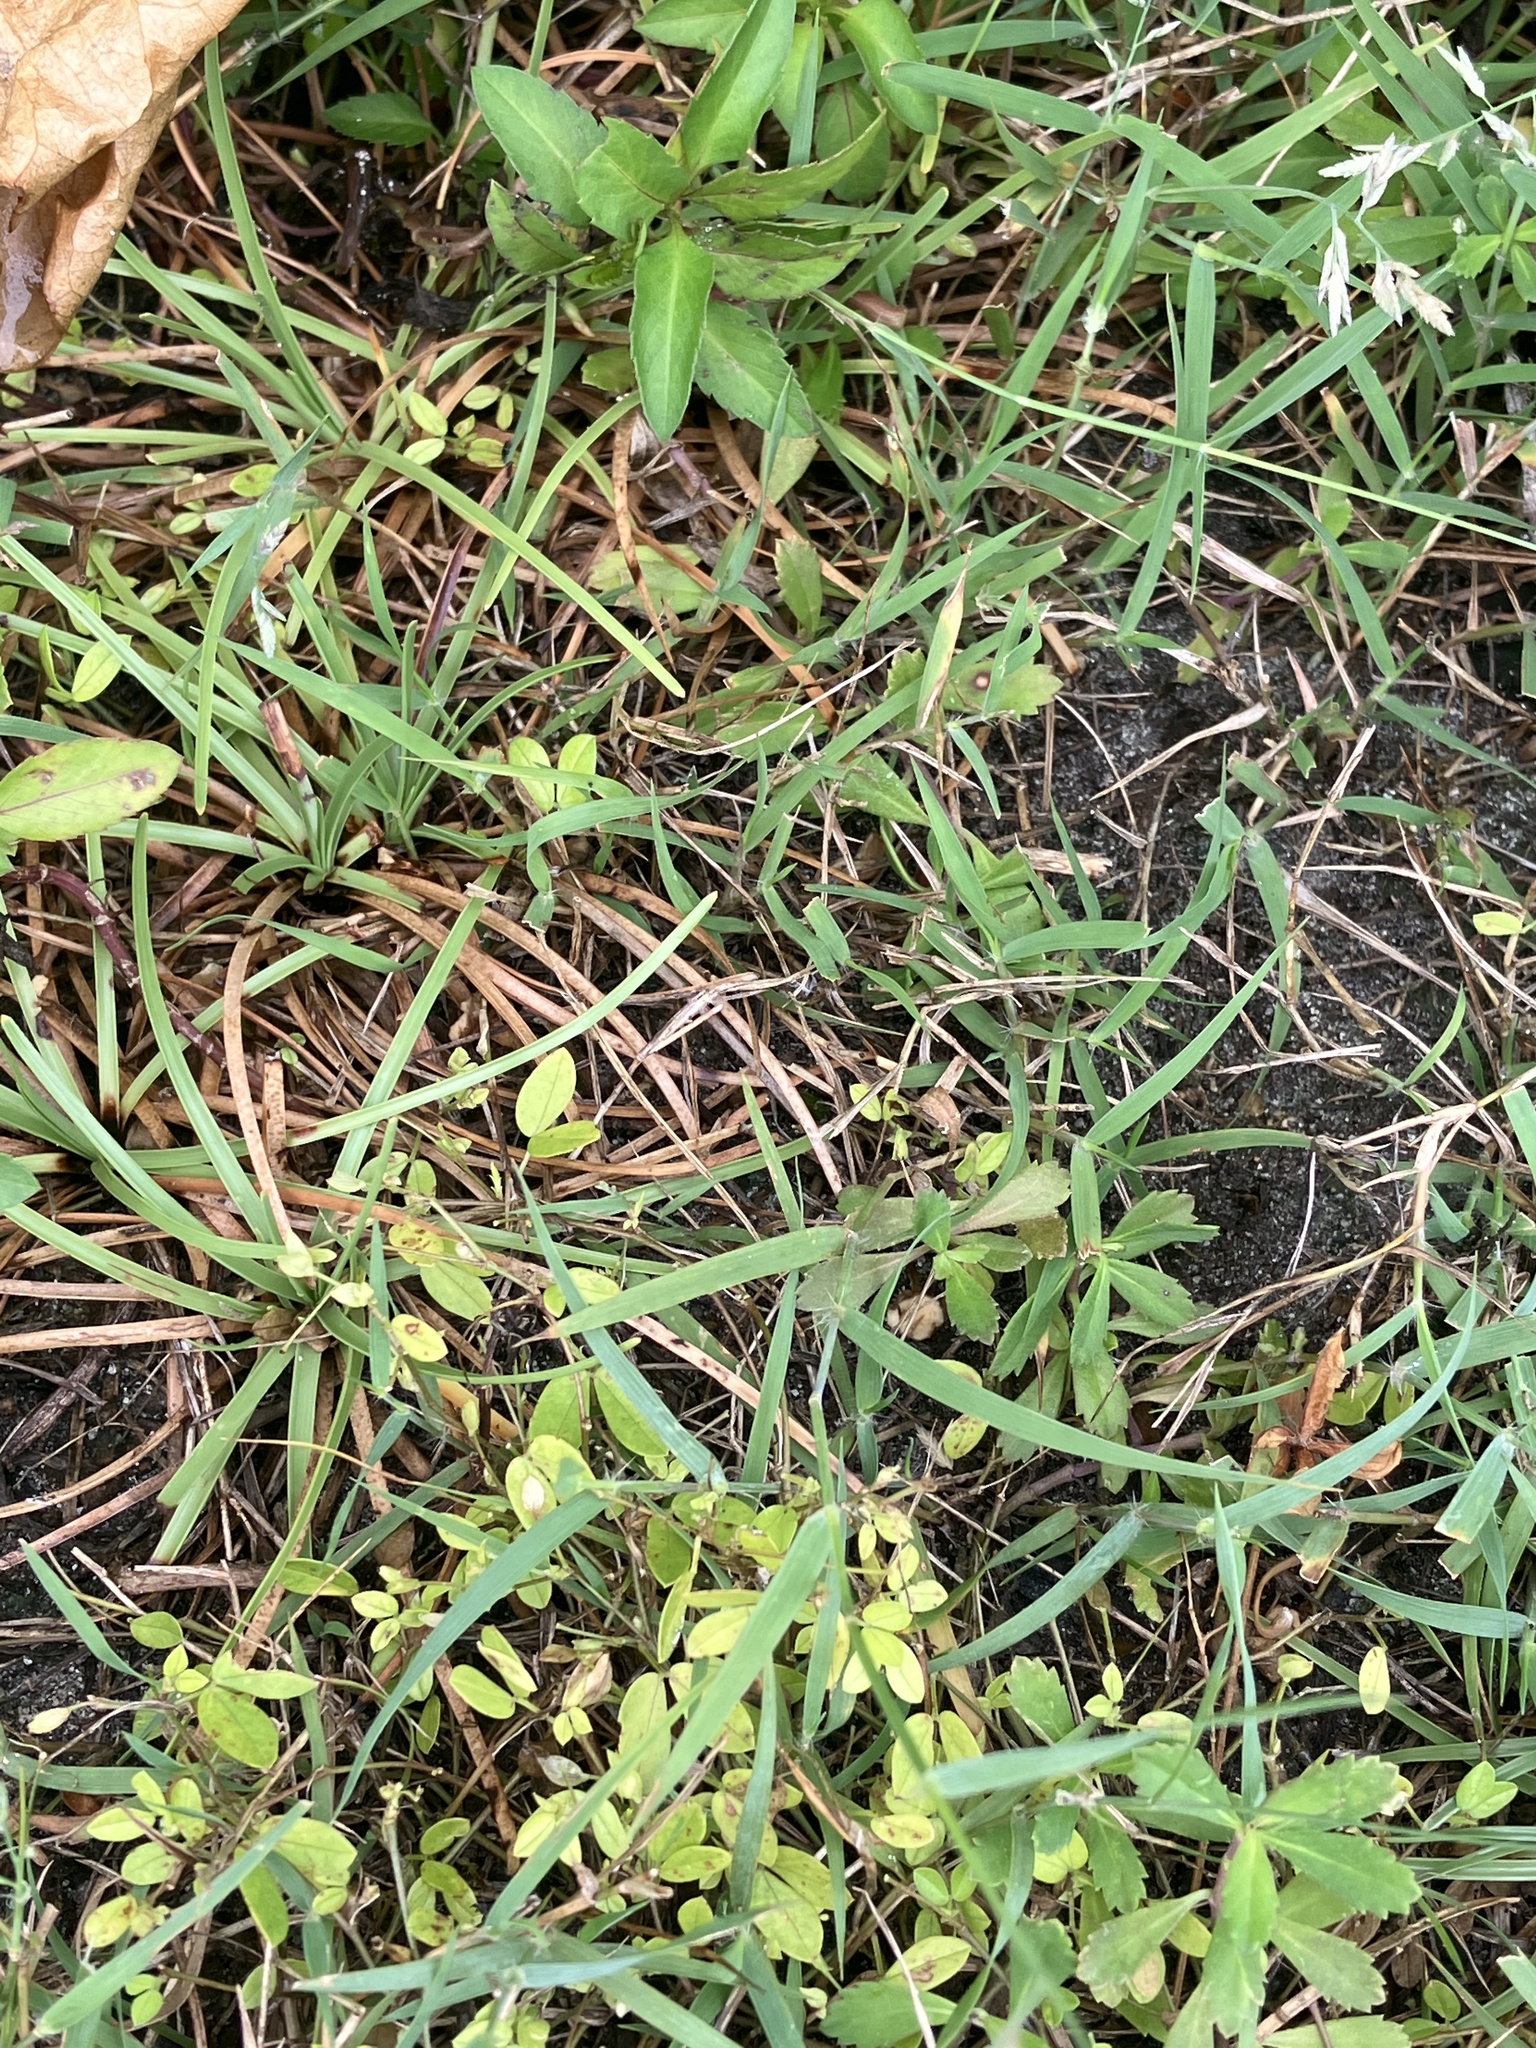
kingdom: Plantae
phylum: Tracheophyta
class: Liliopsida
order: Poales
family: Poaceae
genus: Eragrostis
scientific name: Eragrostis atrovirens
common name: Thalia lovegrass
